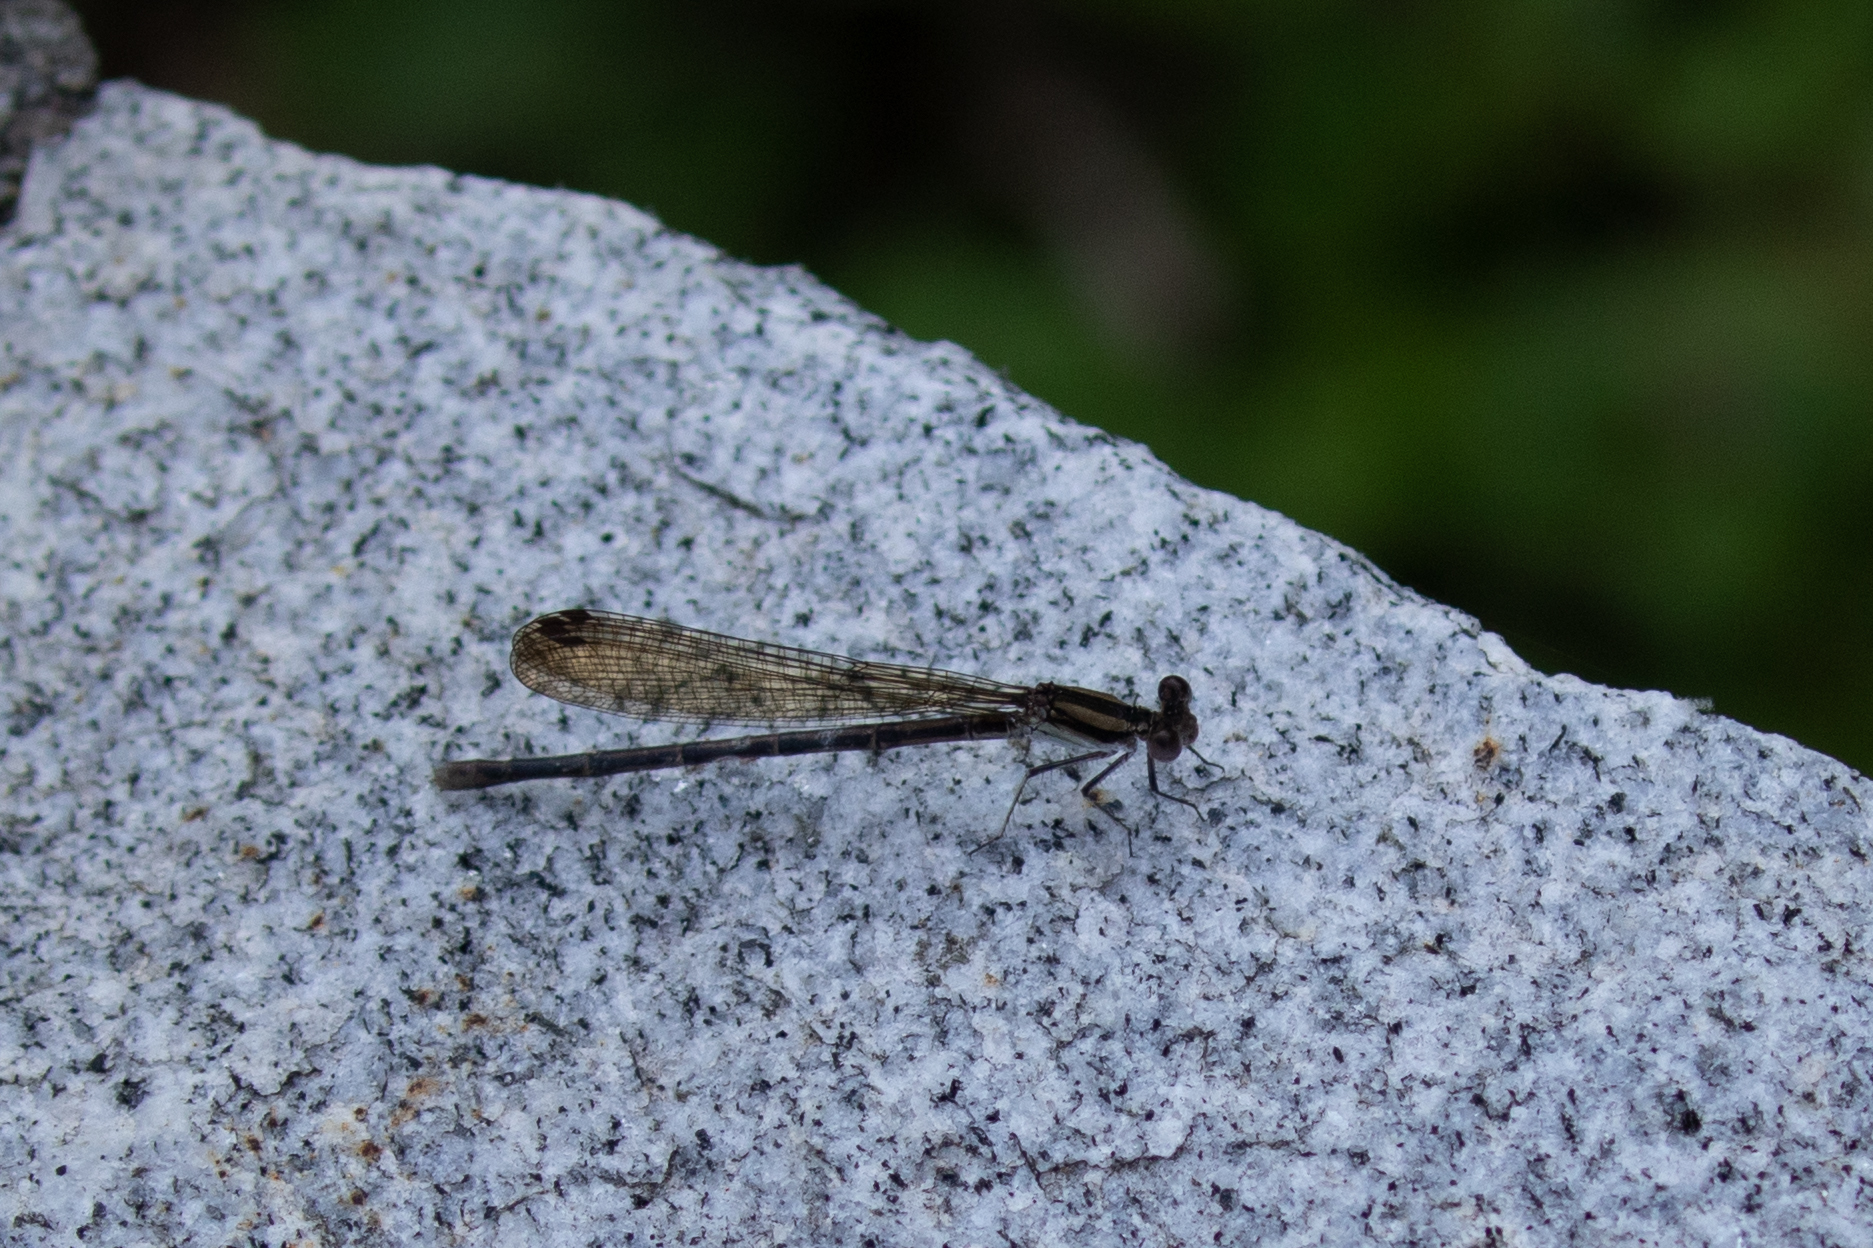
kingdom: Animalia
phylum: Arthropoda
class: Insecta
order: Odonata
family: Coenagrionidae
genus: Argia
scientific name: Argia fumipennis
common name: Variable dancer
